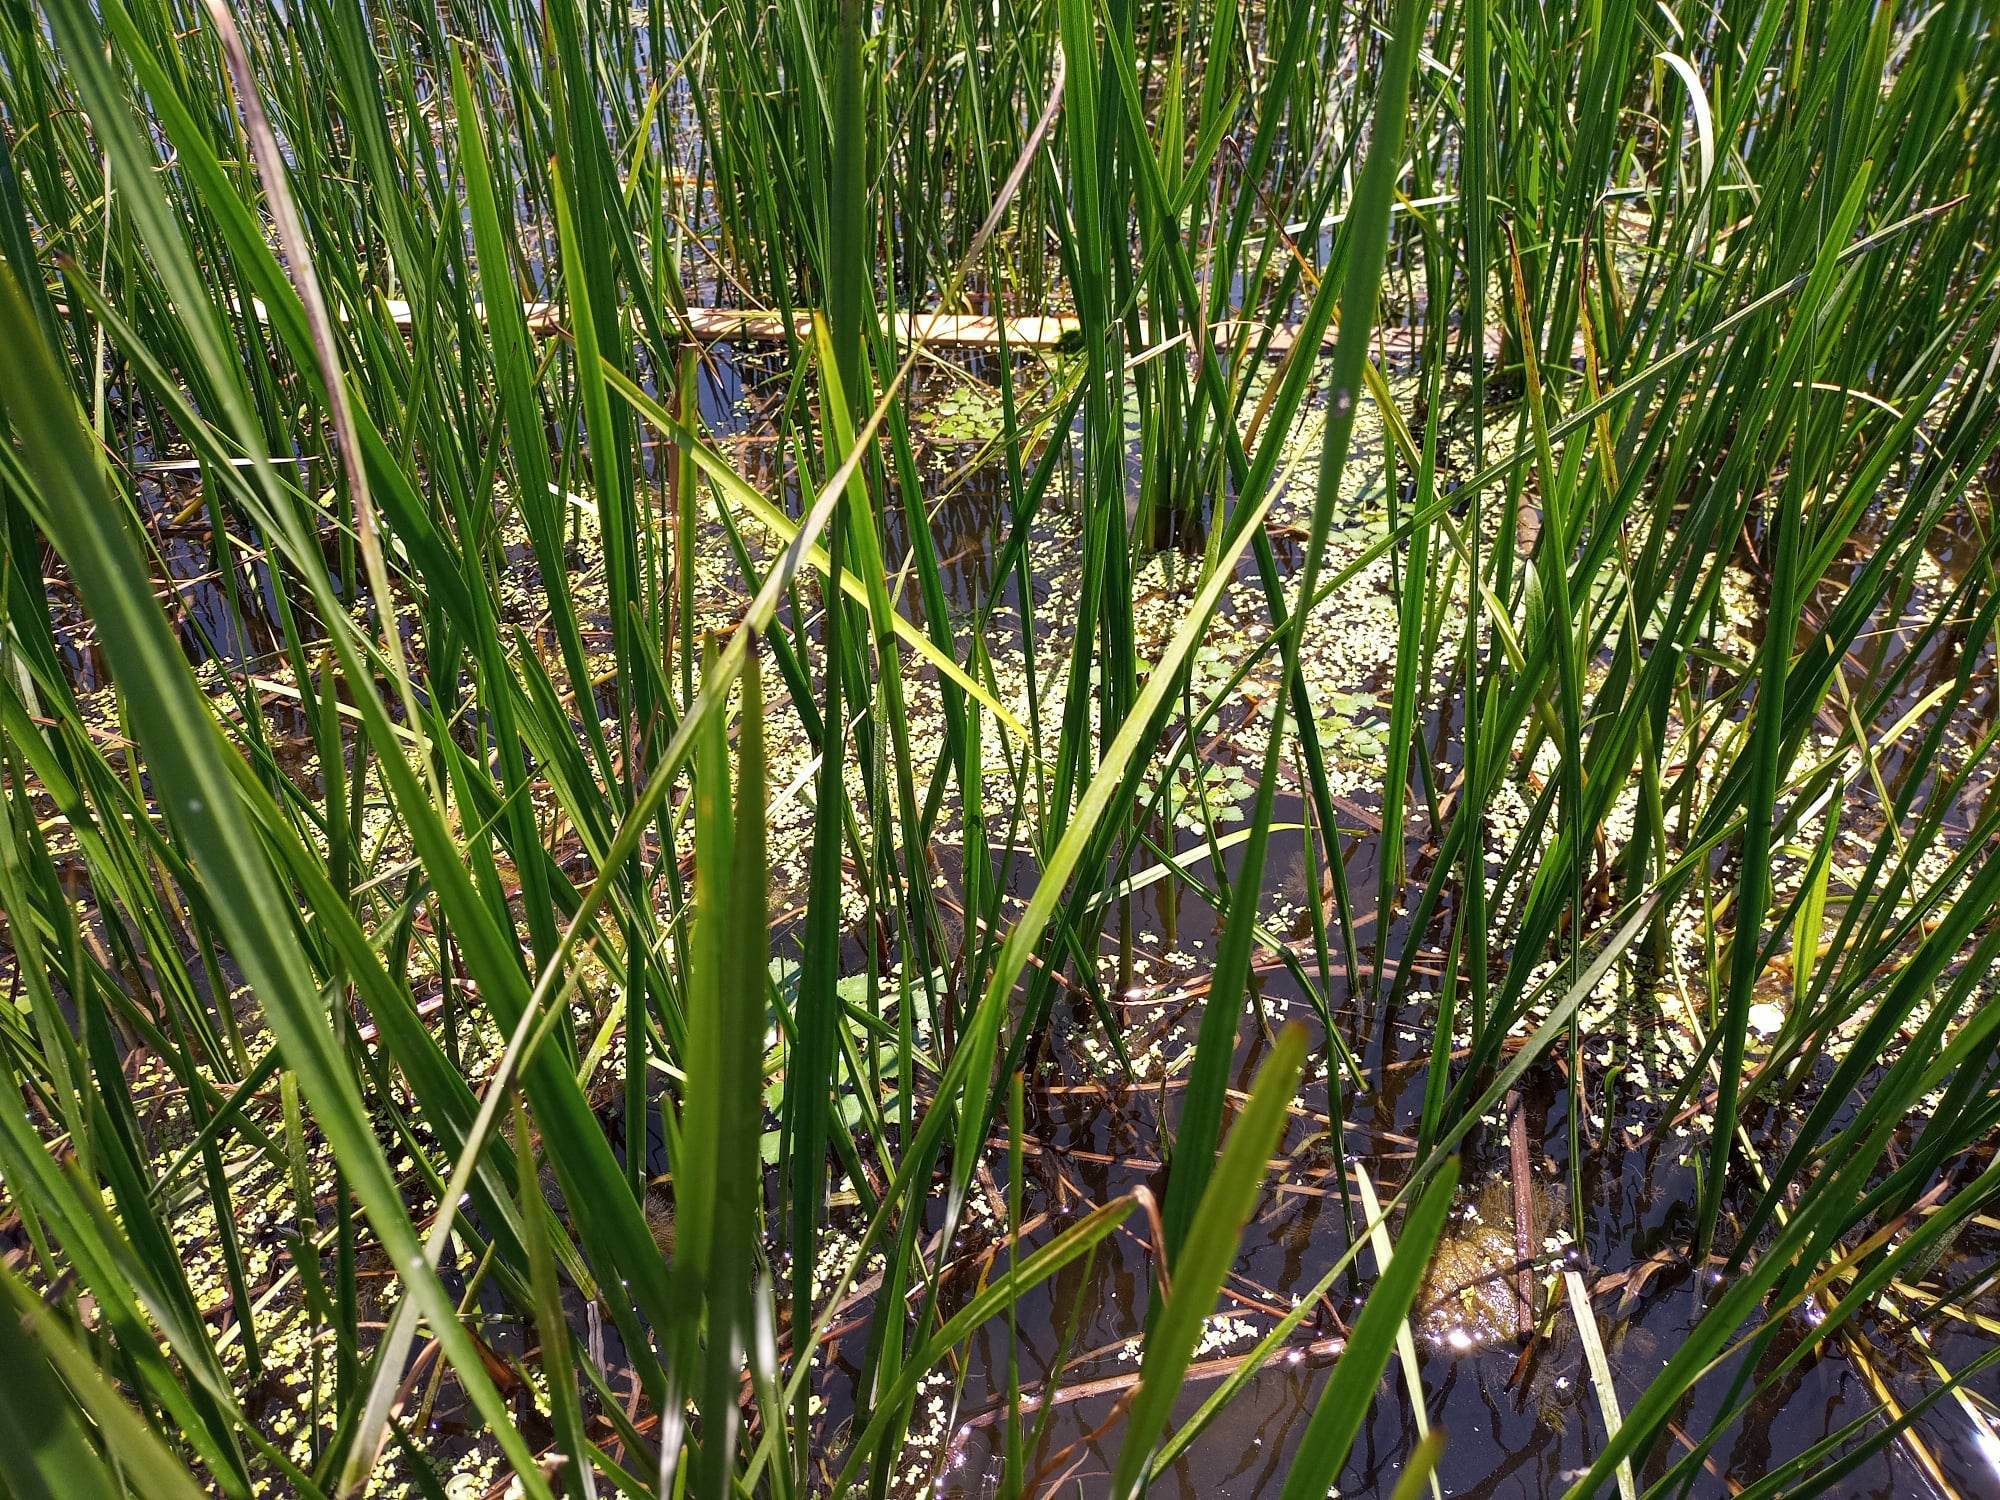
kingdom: Plantae
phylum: Tracheophyta
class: Magnoliopsida
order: Myrtales
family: Lythraceae
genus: Trapa
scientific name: Trapa natans
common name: Water chestnut
